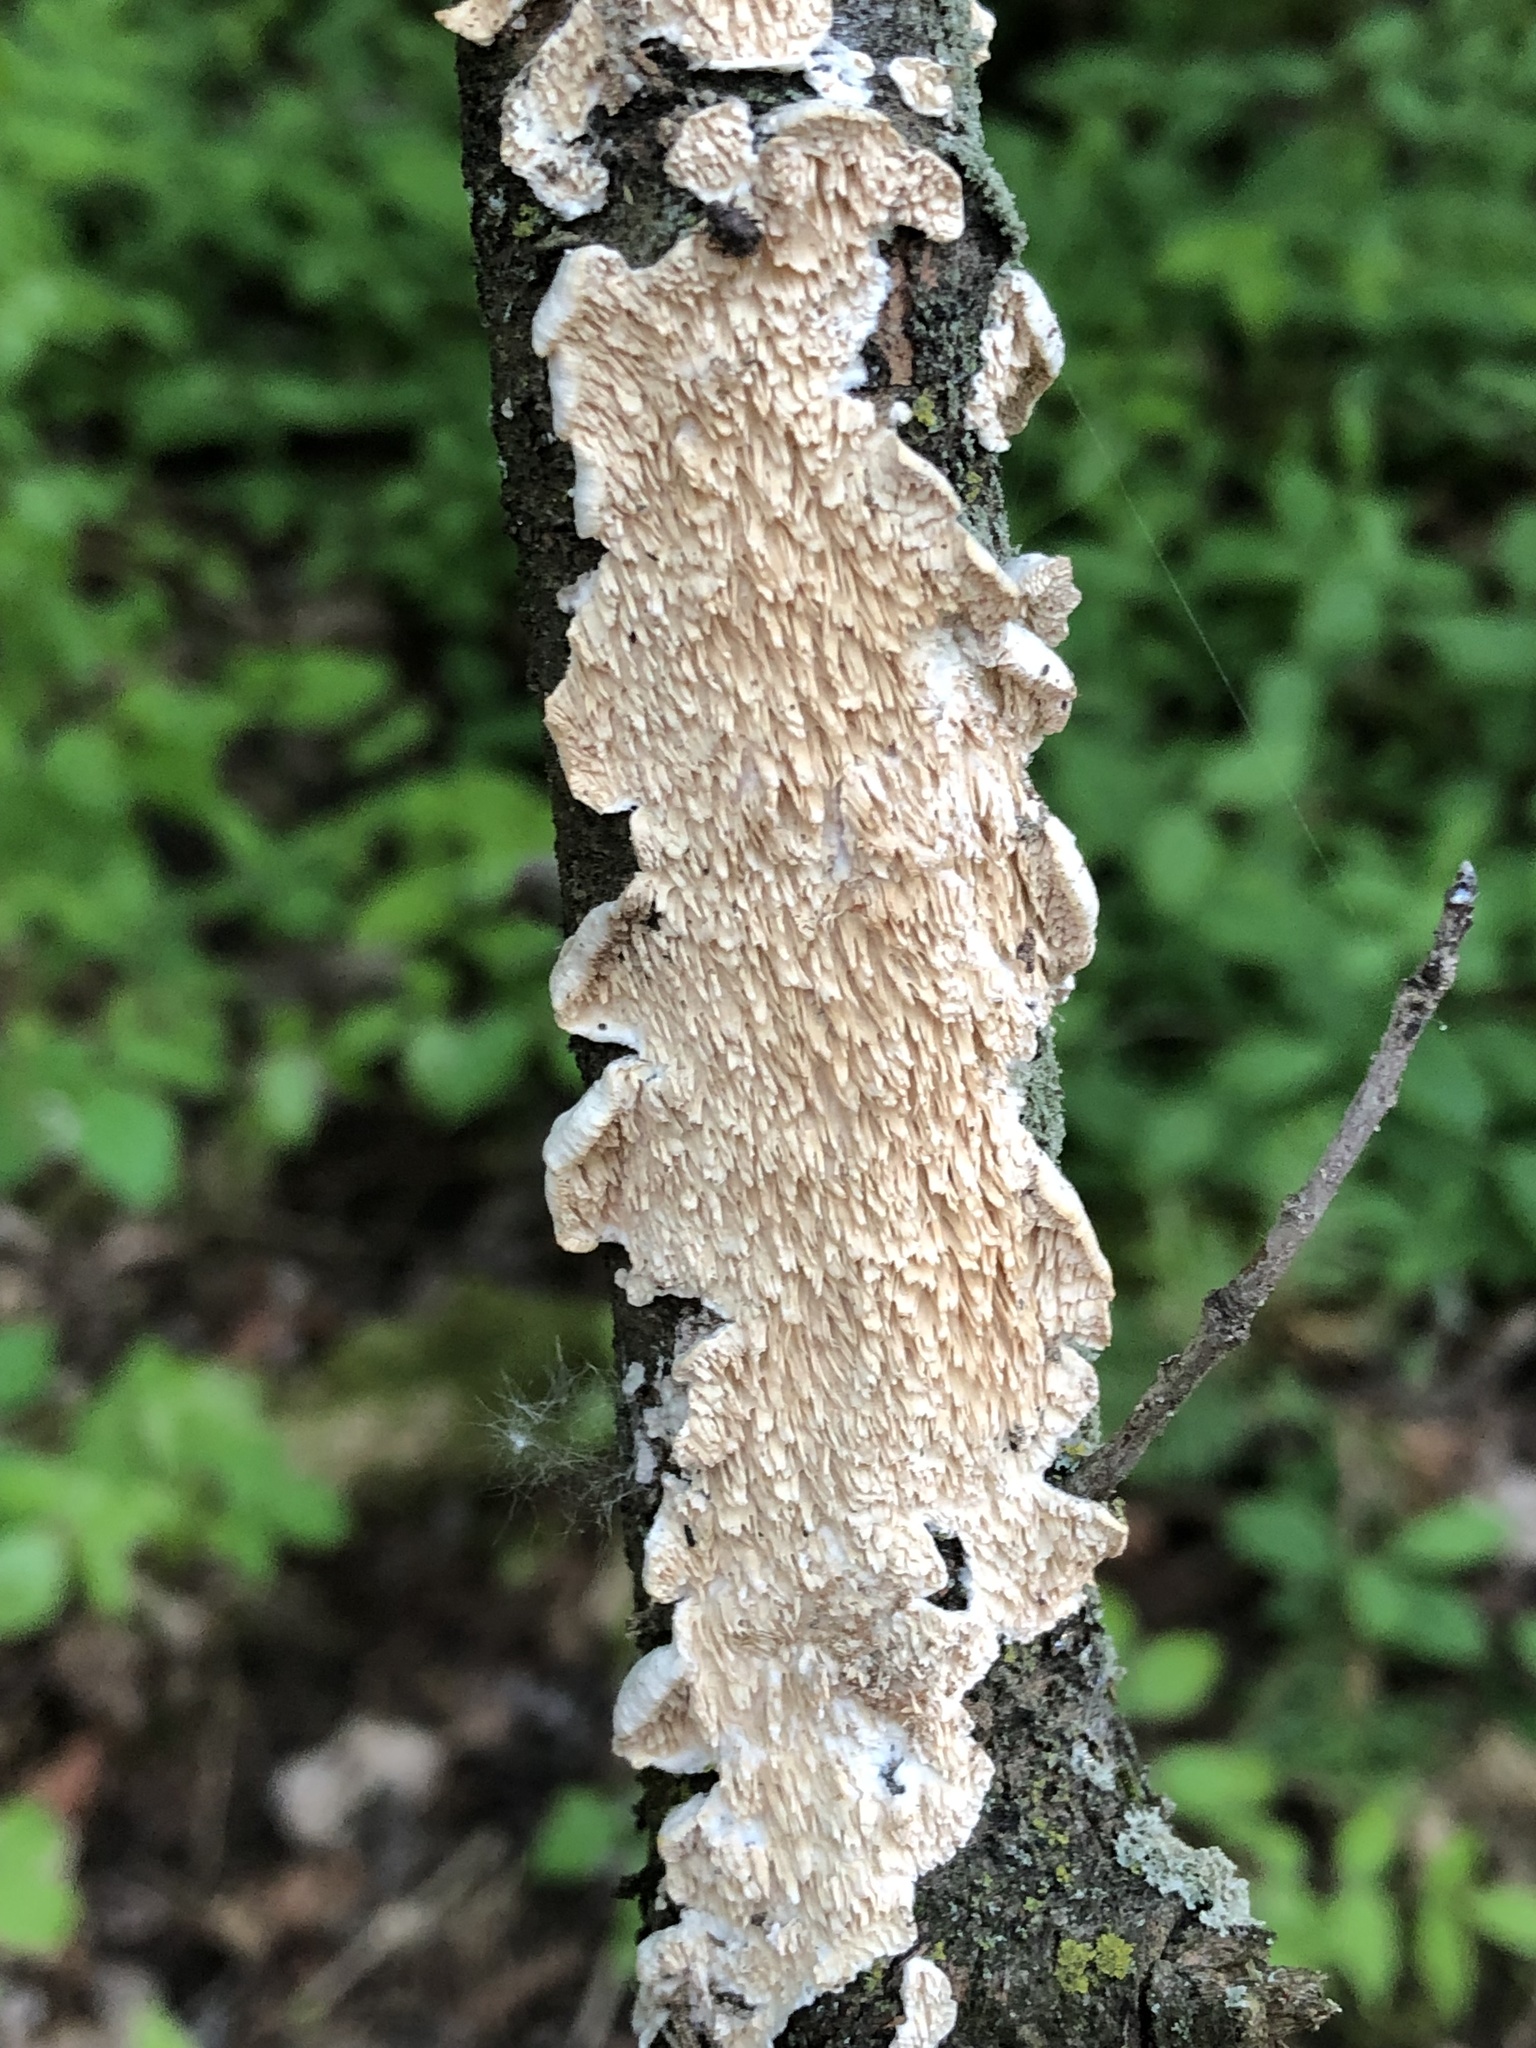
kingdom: Fungi
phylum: Basidiomycota
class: Agaricomycetes
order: Polyporales
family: Irpicaceae
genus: Irpex
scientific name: Irpex lacteus
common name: Milk-white toothed polypore
